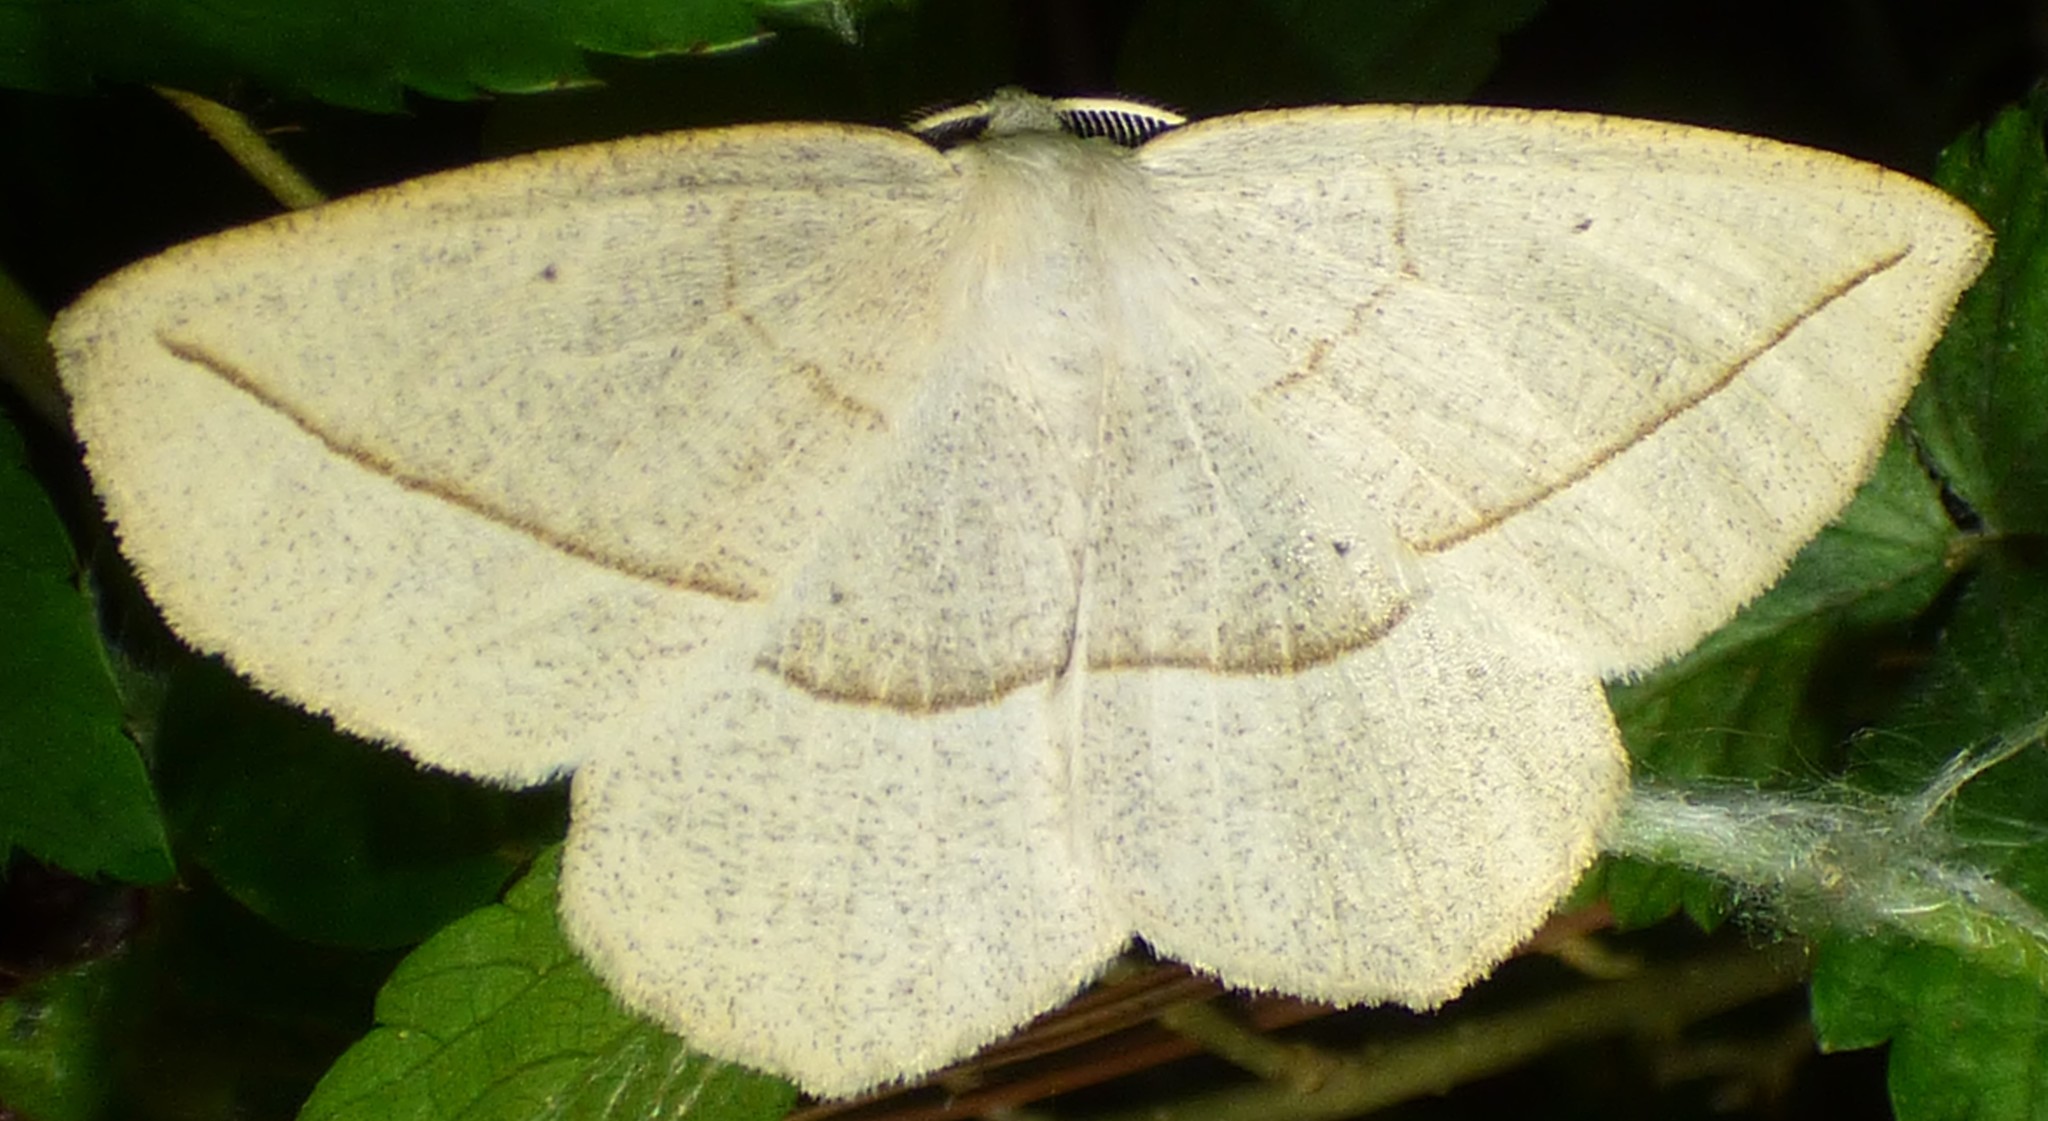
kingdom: Animalia
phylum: Arthropoda
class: Insecta
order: Lepidoptera
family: Geometridae
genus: Eusarca
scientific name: Eusarca confusaria
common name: Confused eusarca
